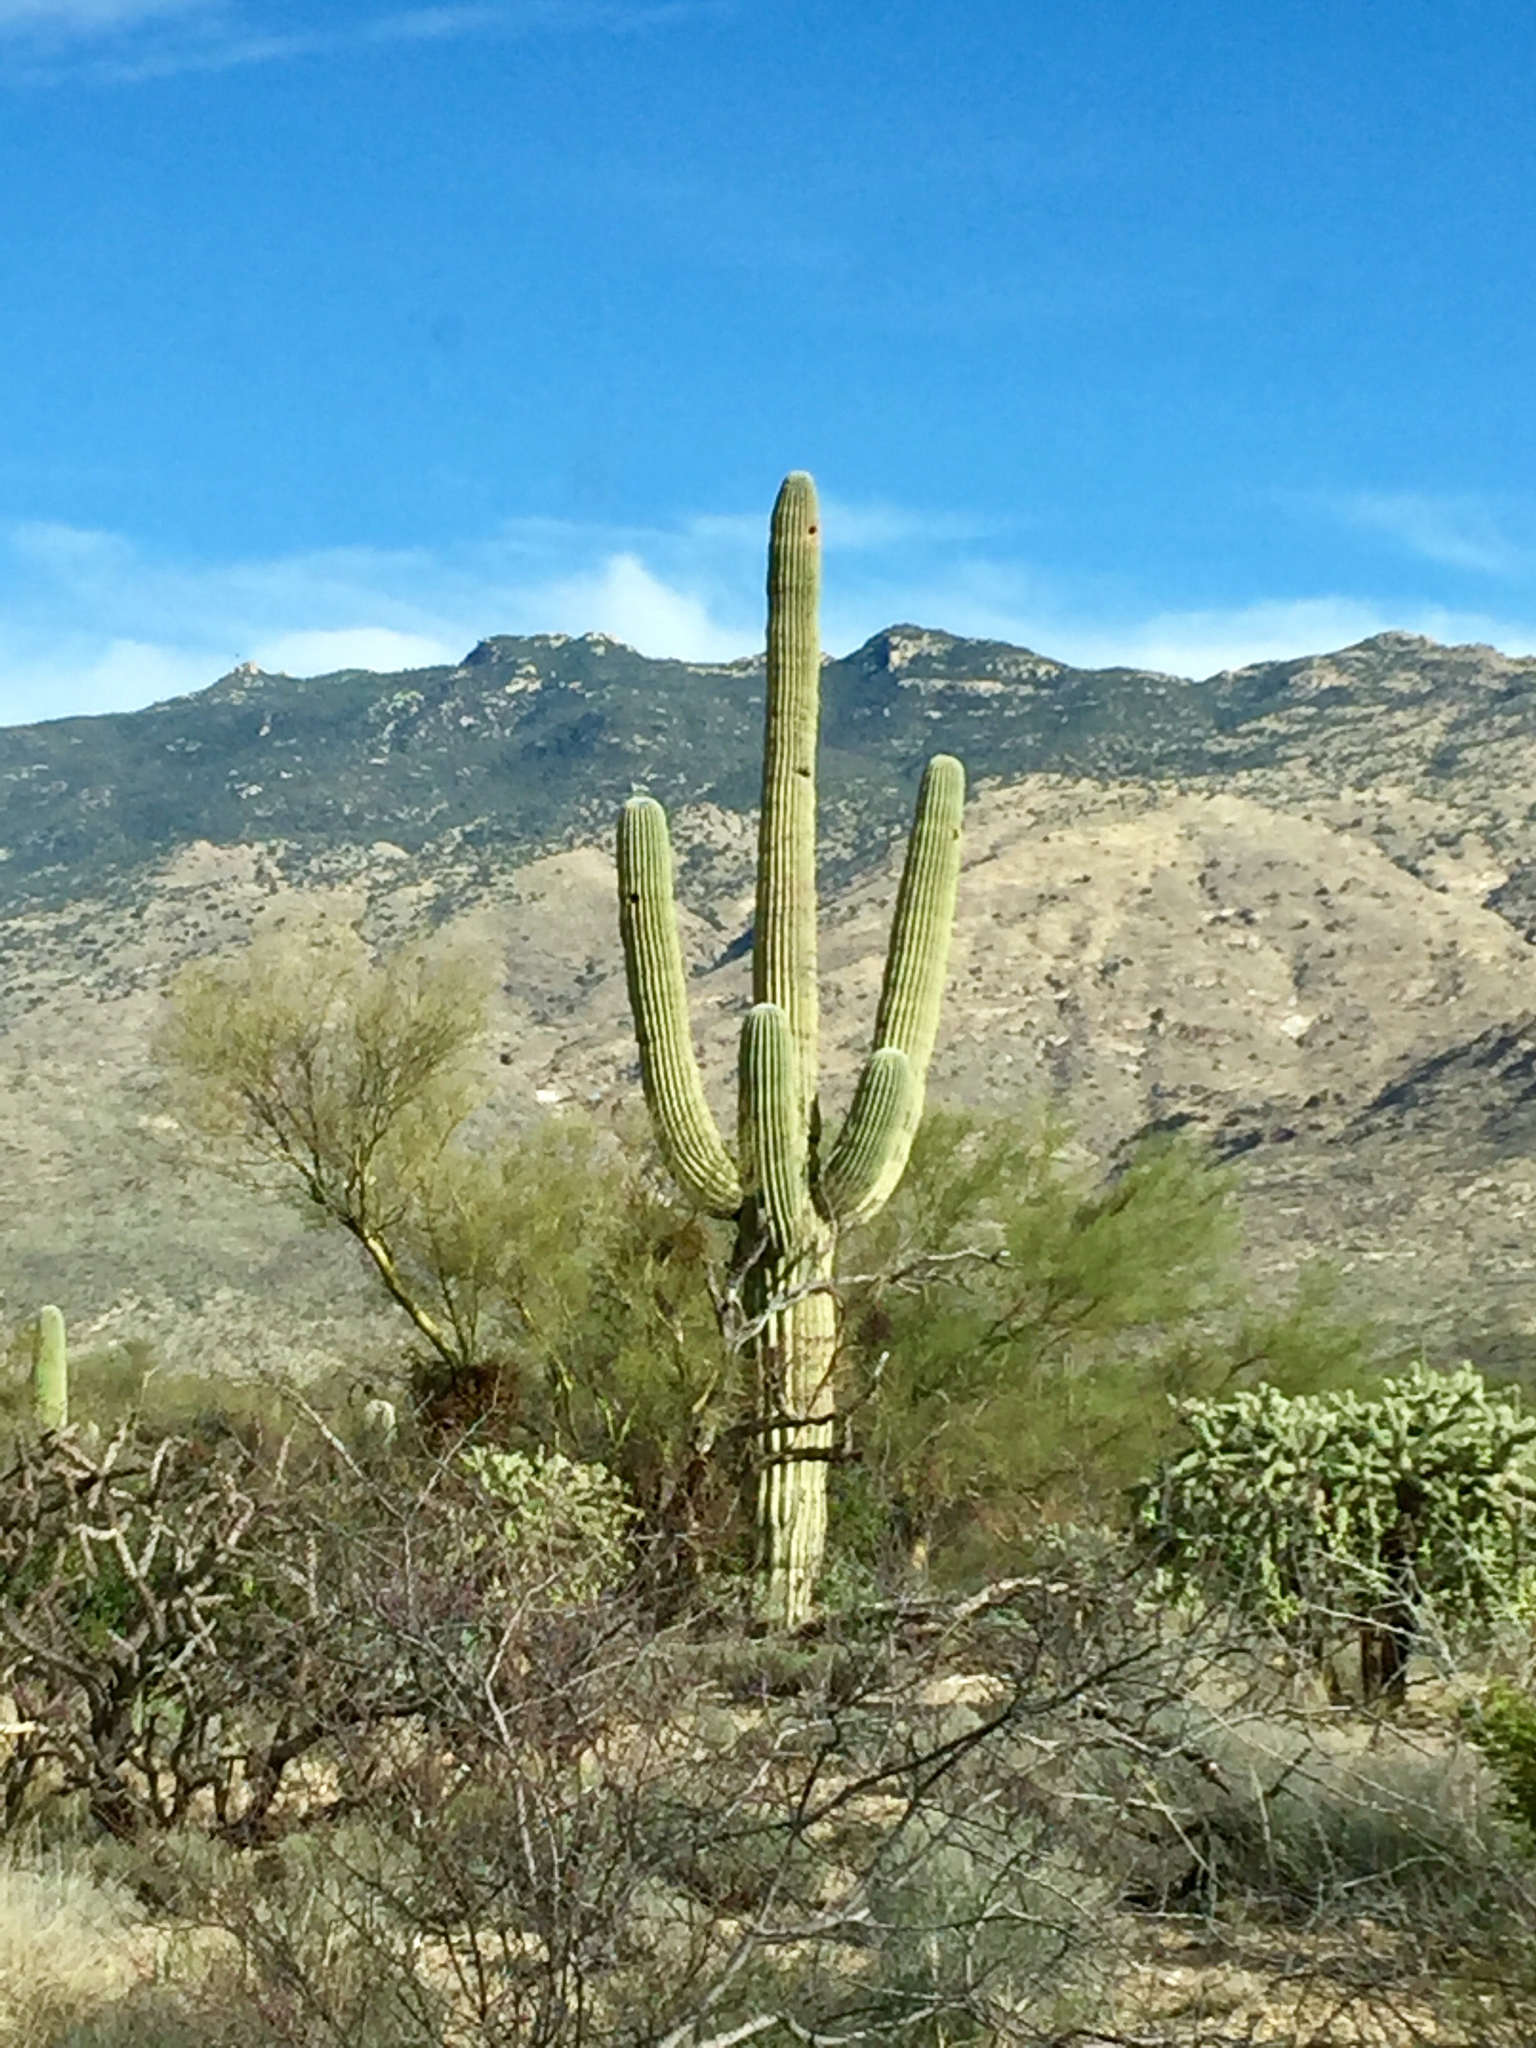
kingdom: Plantae
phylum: Tracheophyta
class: Magnoliopsida
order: Caryophyllales
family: Cactaceae
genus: Carnegiea
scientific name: Carnegiea gigantea
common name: Saguaro
